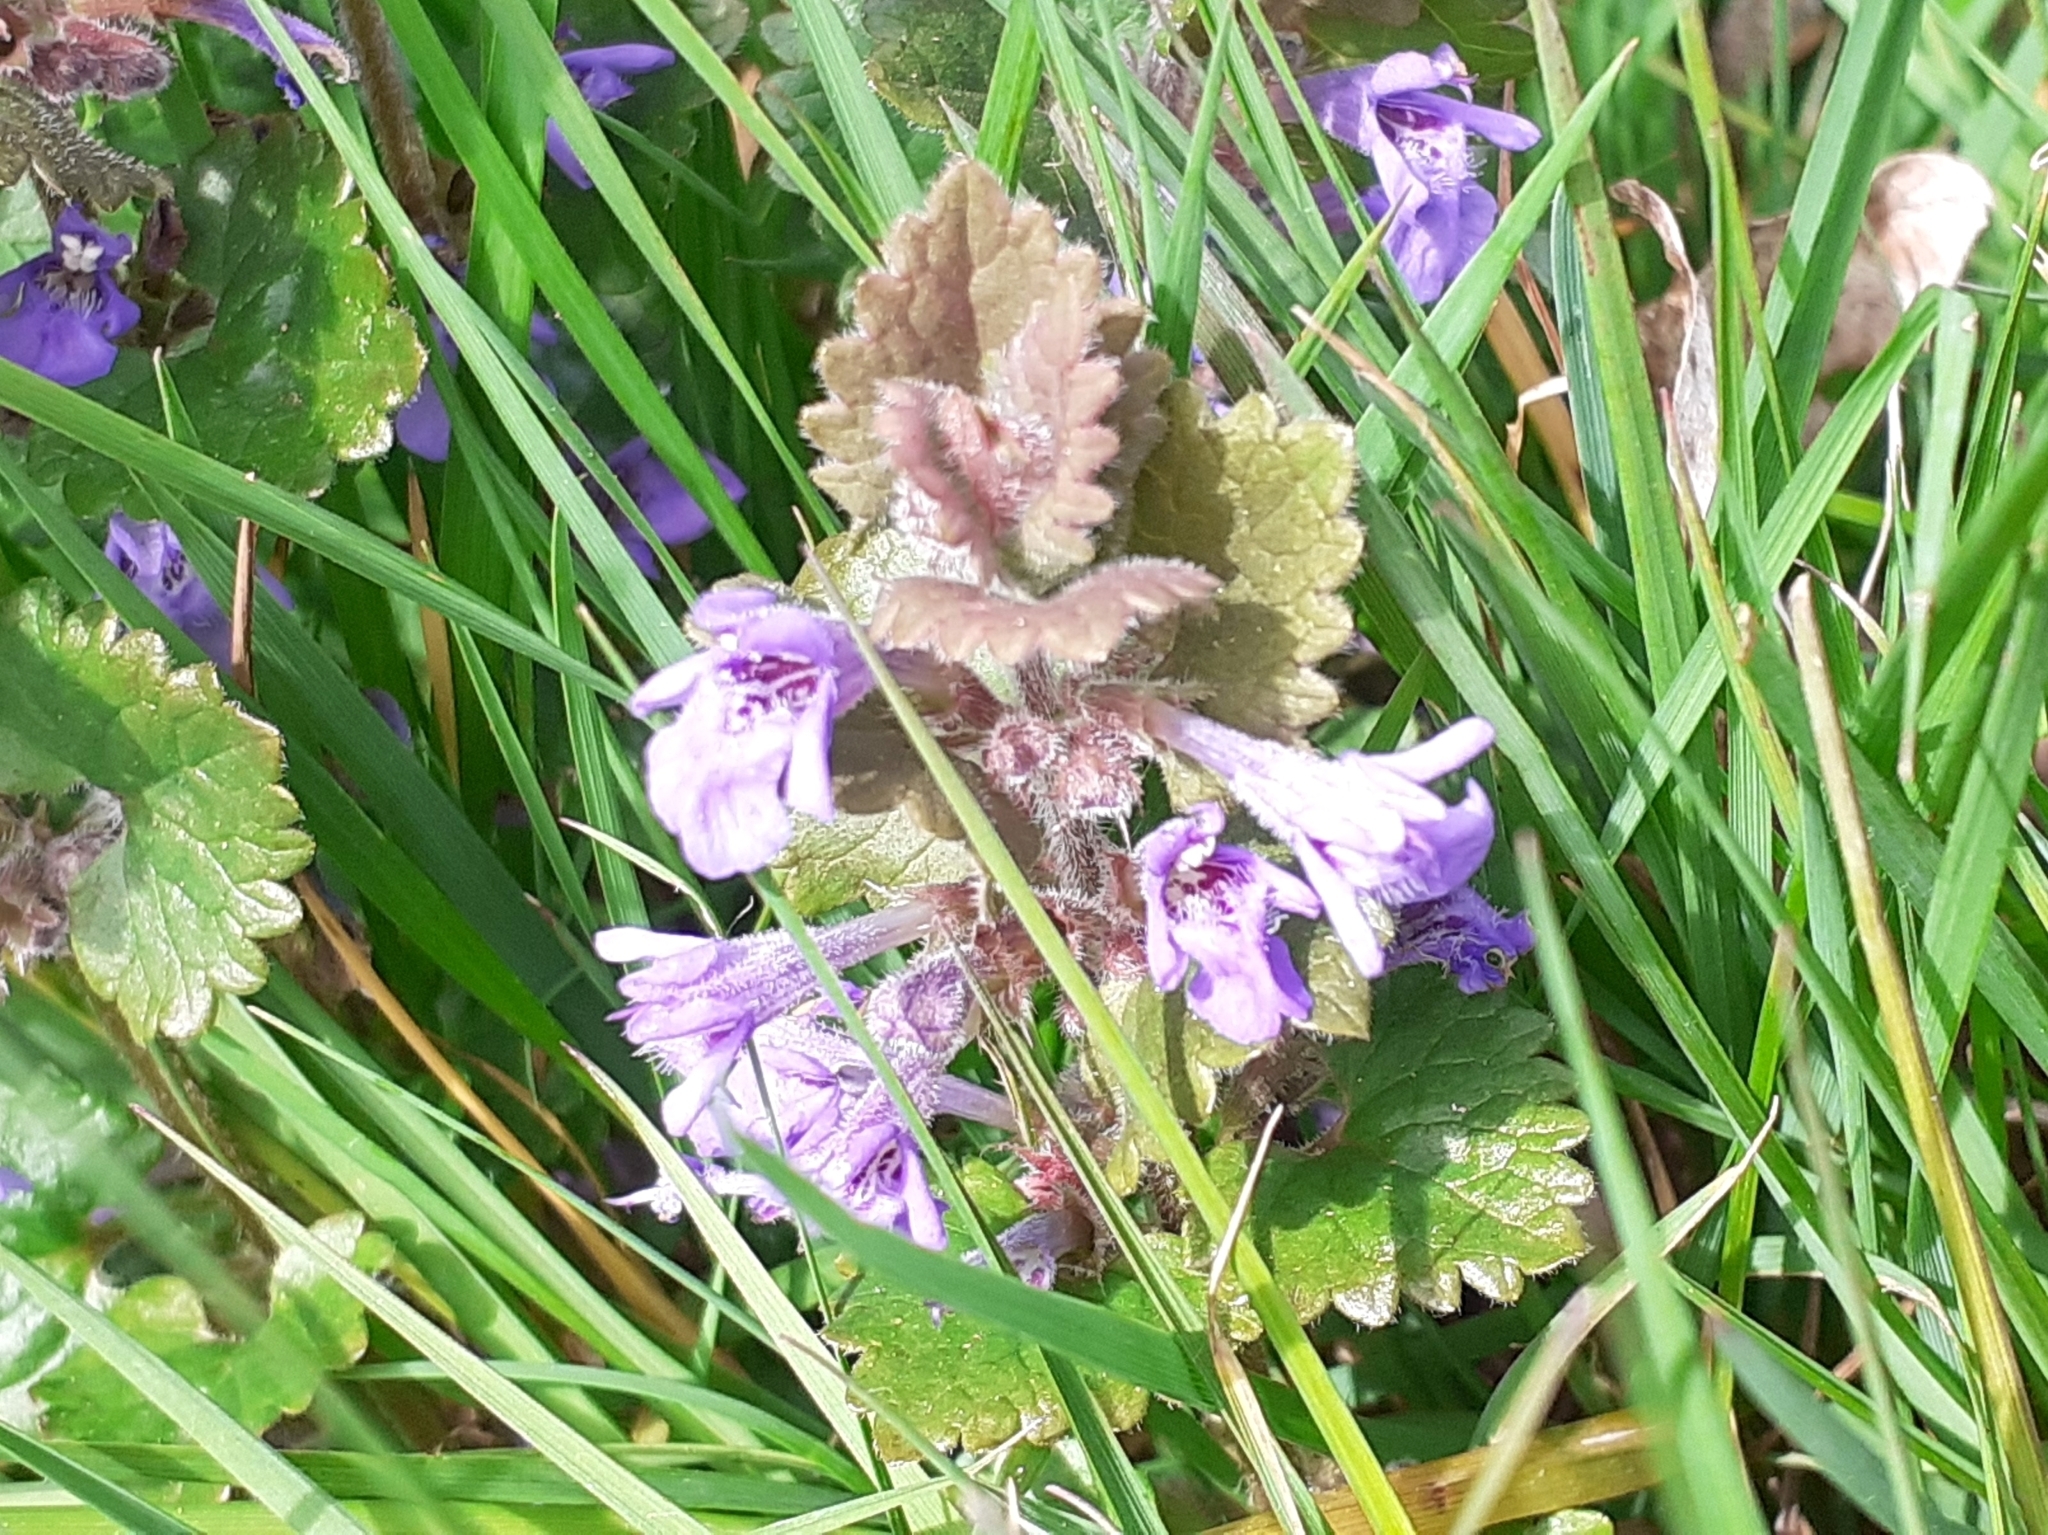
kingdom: Plantae
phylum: Tracheophyta
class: Magnoliopsida
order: Lamiales
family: Lamiaceae
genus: Glechoma
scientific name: Glechoma hederacea
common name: Ground ivy
